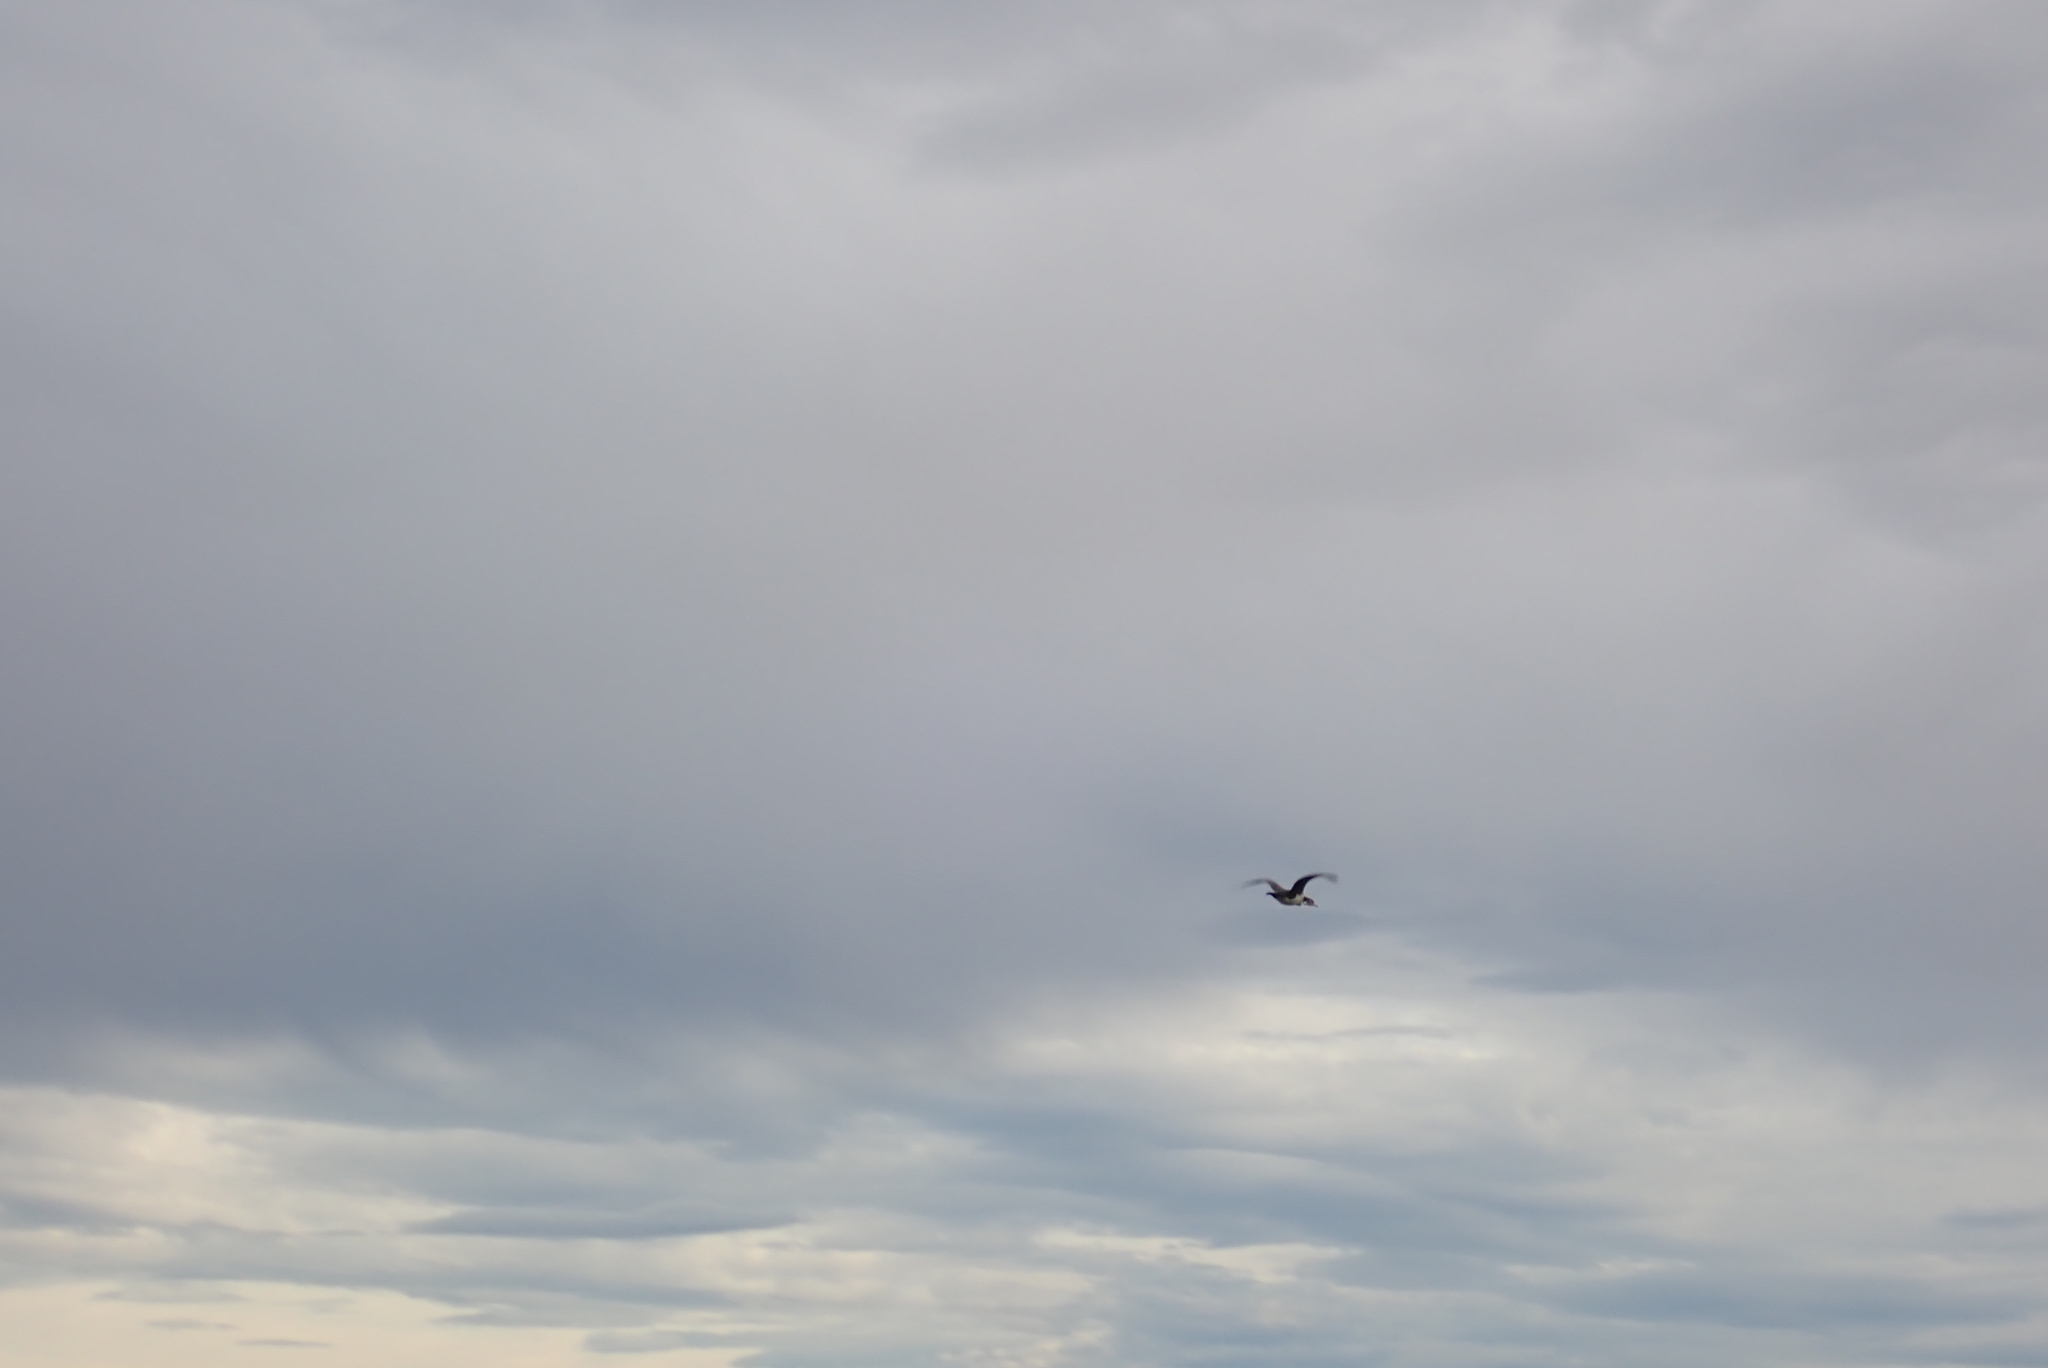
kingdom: Animalia
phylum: Chordata
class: Aves
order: Suliformes
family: Phalacrocoracidae
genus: Phalacrocorax
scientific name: Phalacrocorax varius
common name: Pied cormorant
